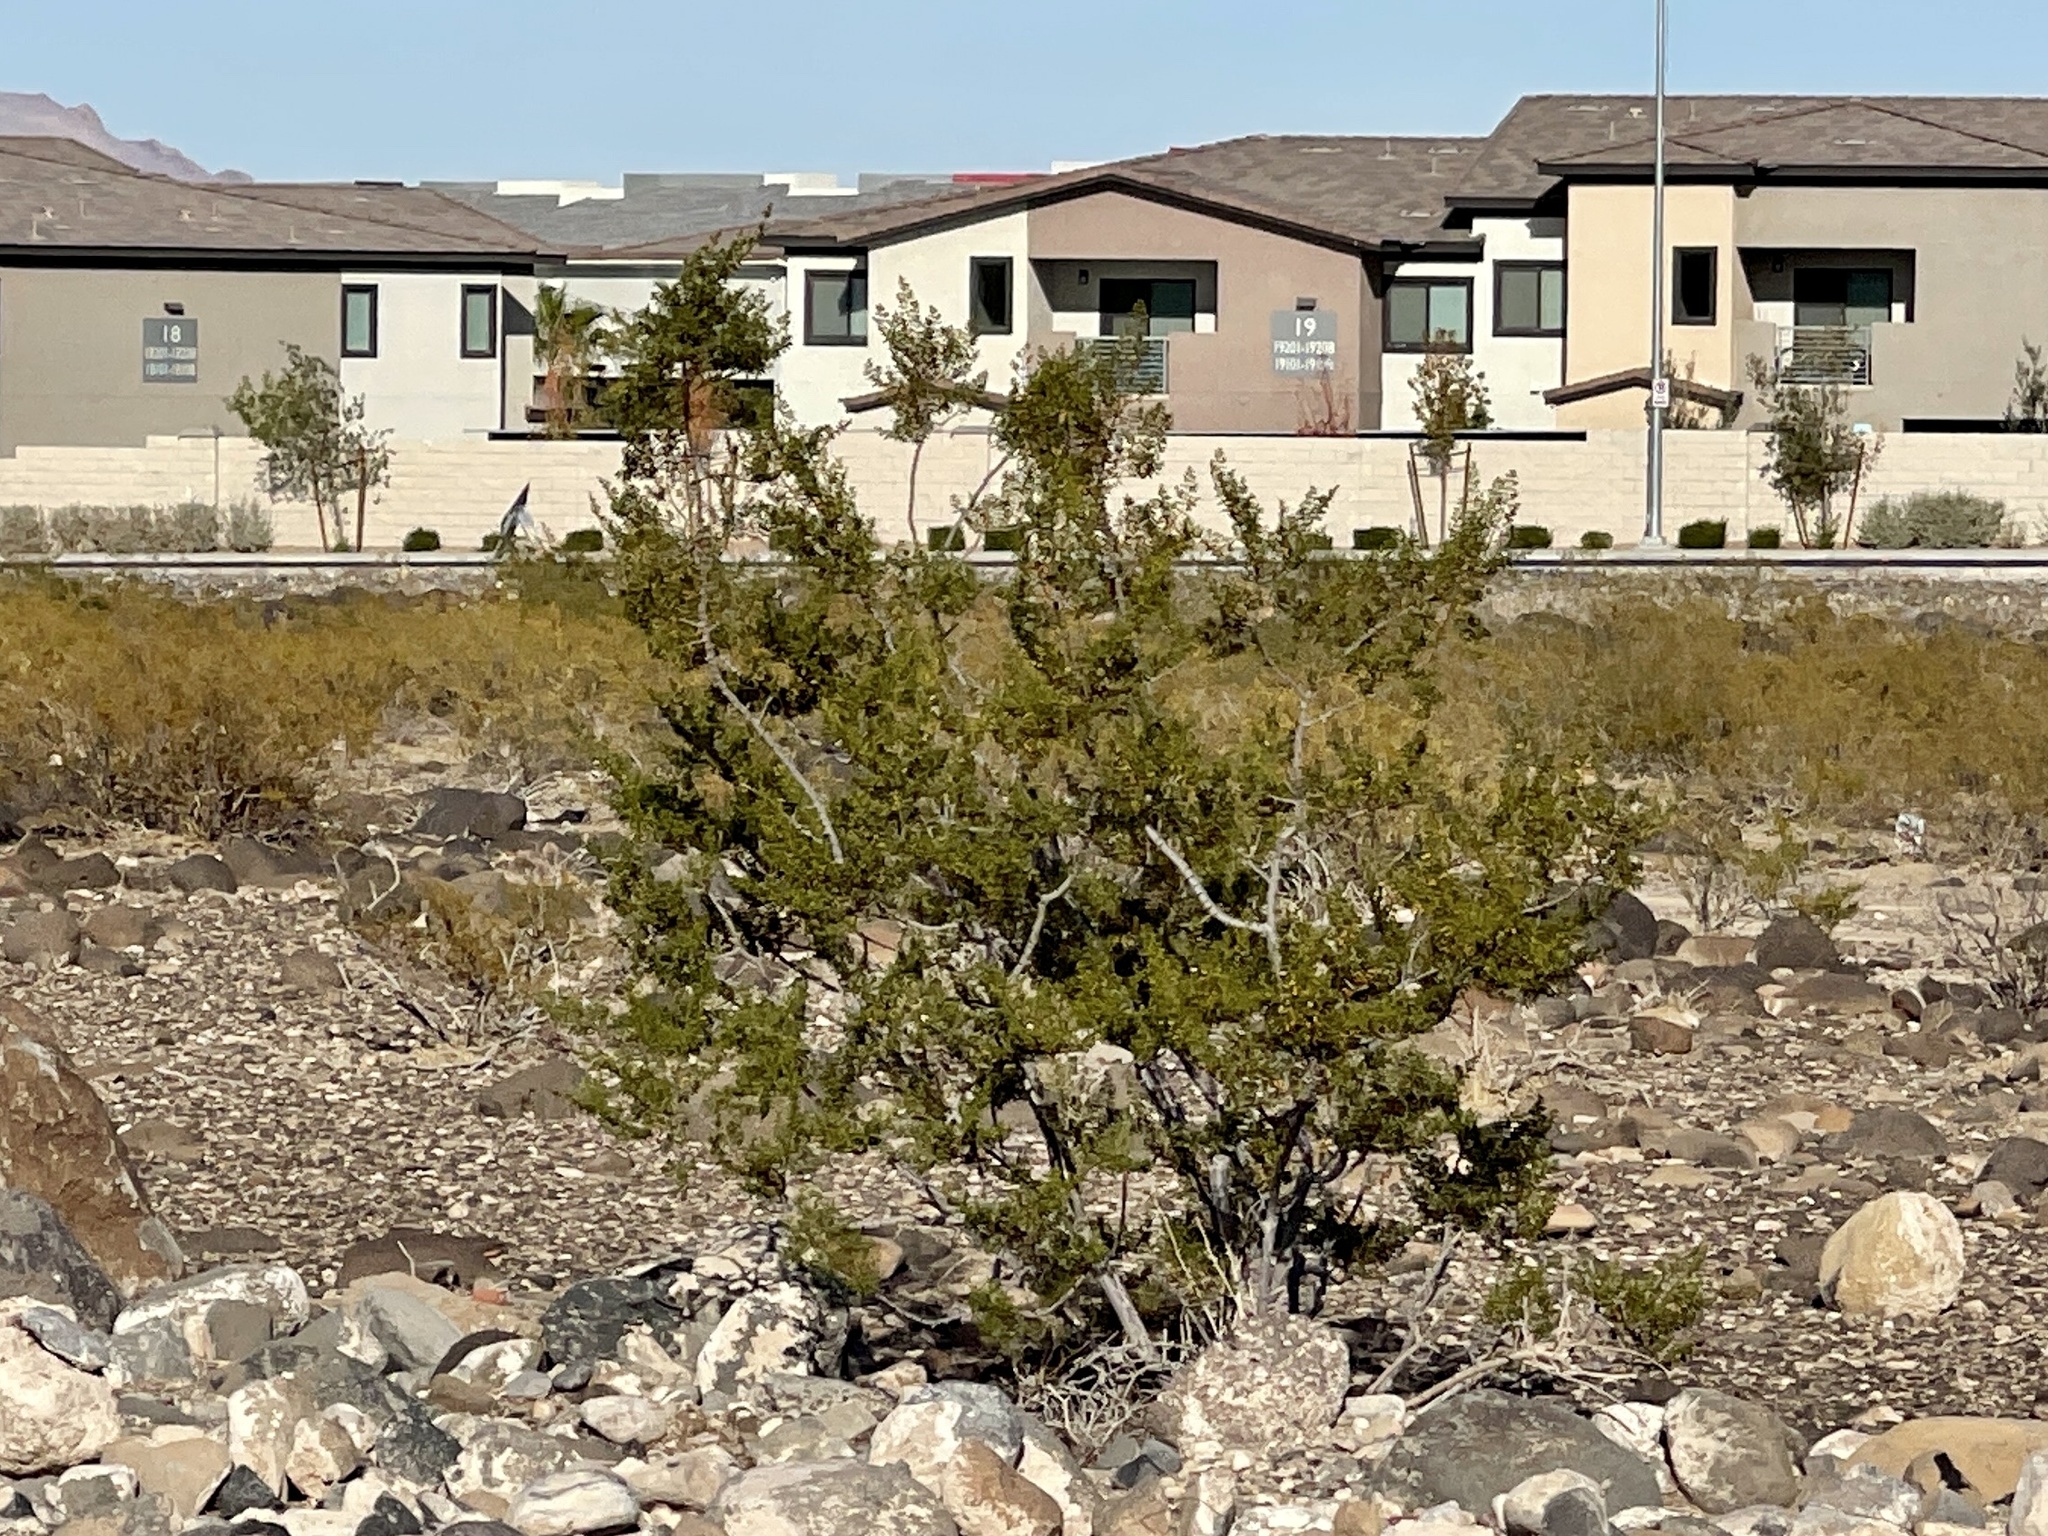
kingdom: Plantae
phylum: Tracheophyta
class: Magnoliopsida
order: Zygophyllales
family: Zygophyllaceae
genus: Larrea
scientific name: Larrea tridentata
